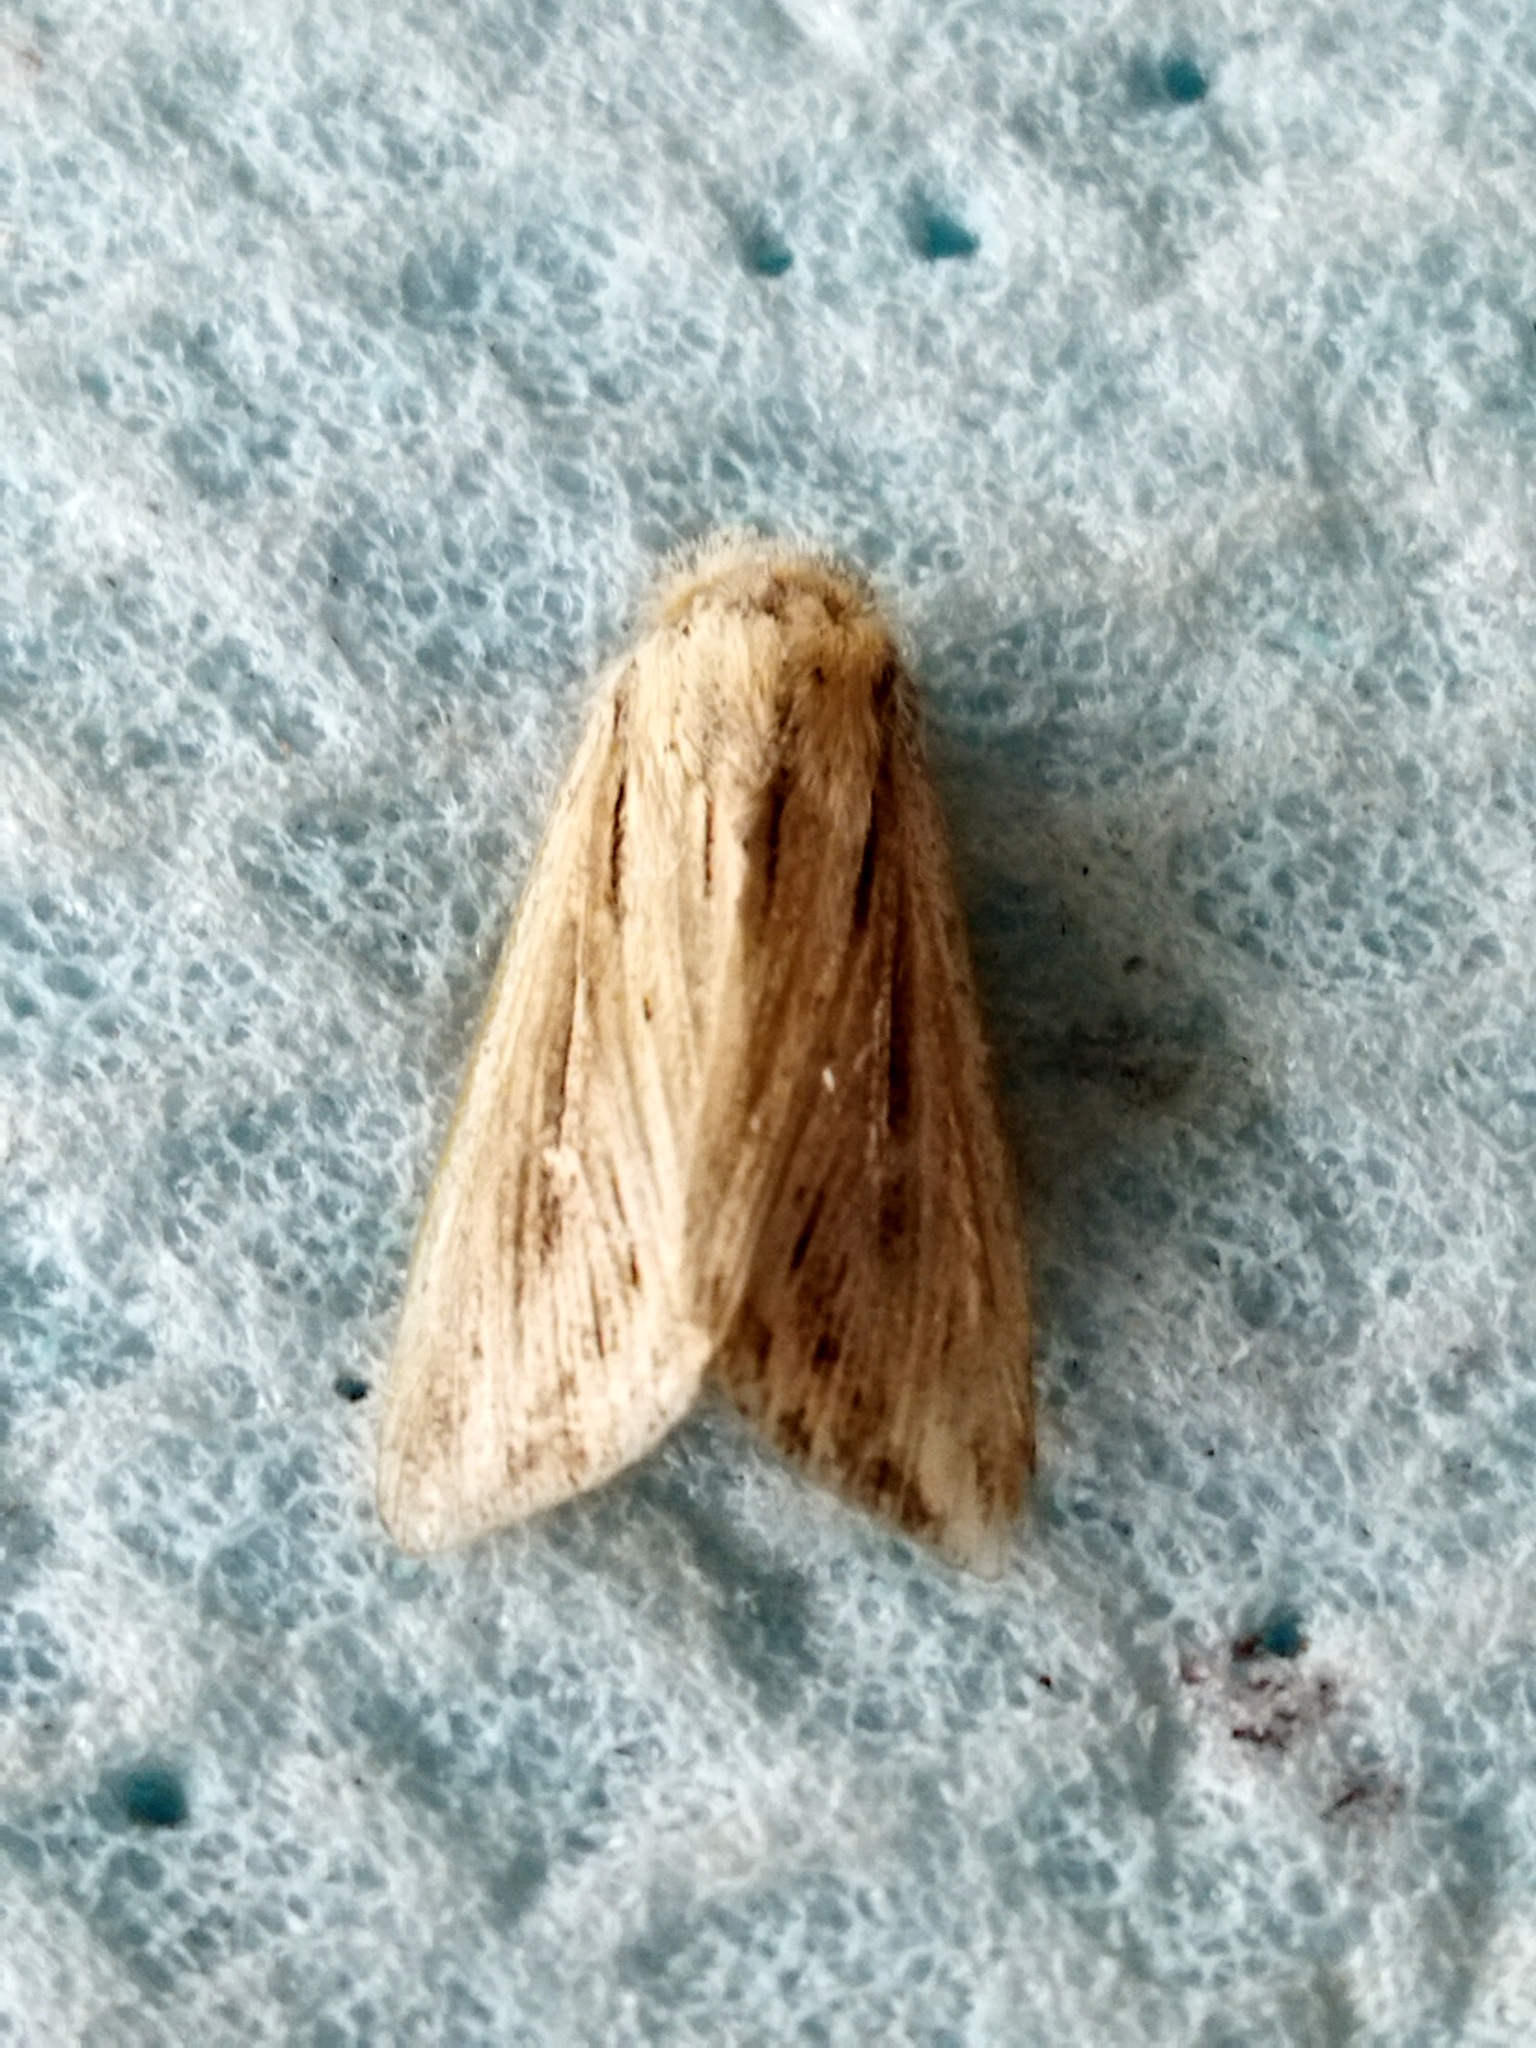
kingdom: Animalia
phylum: Arthropoda
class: Insecta
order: Lepidoptera
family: Noctuidae
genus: Mythimna
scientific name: Mythimna l-album
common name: L-album wainscot
